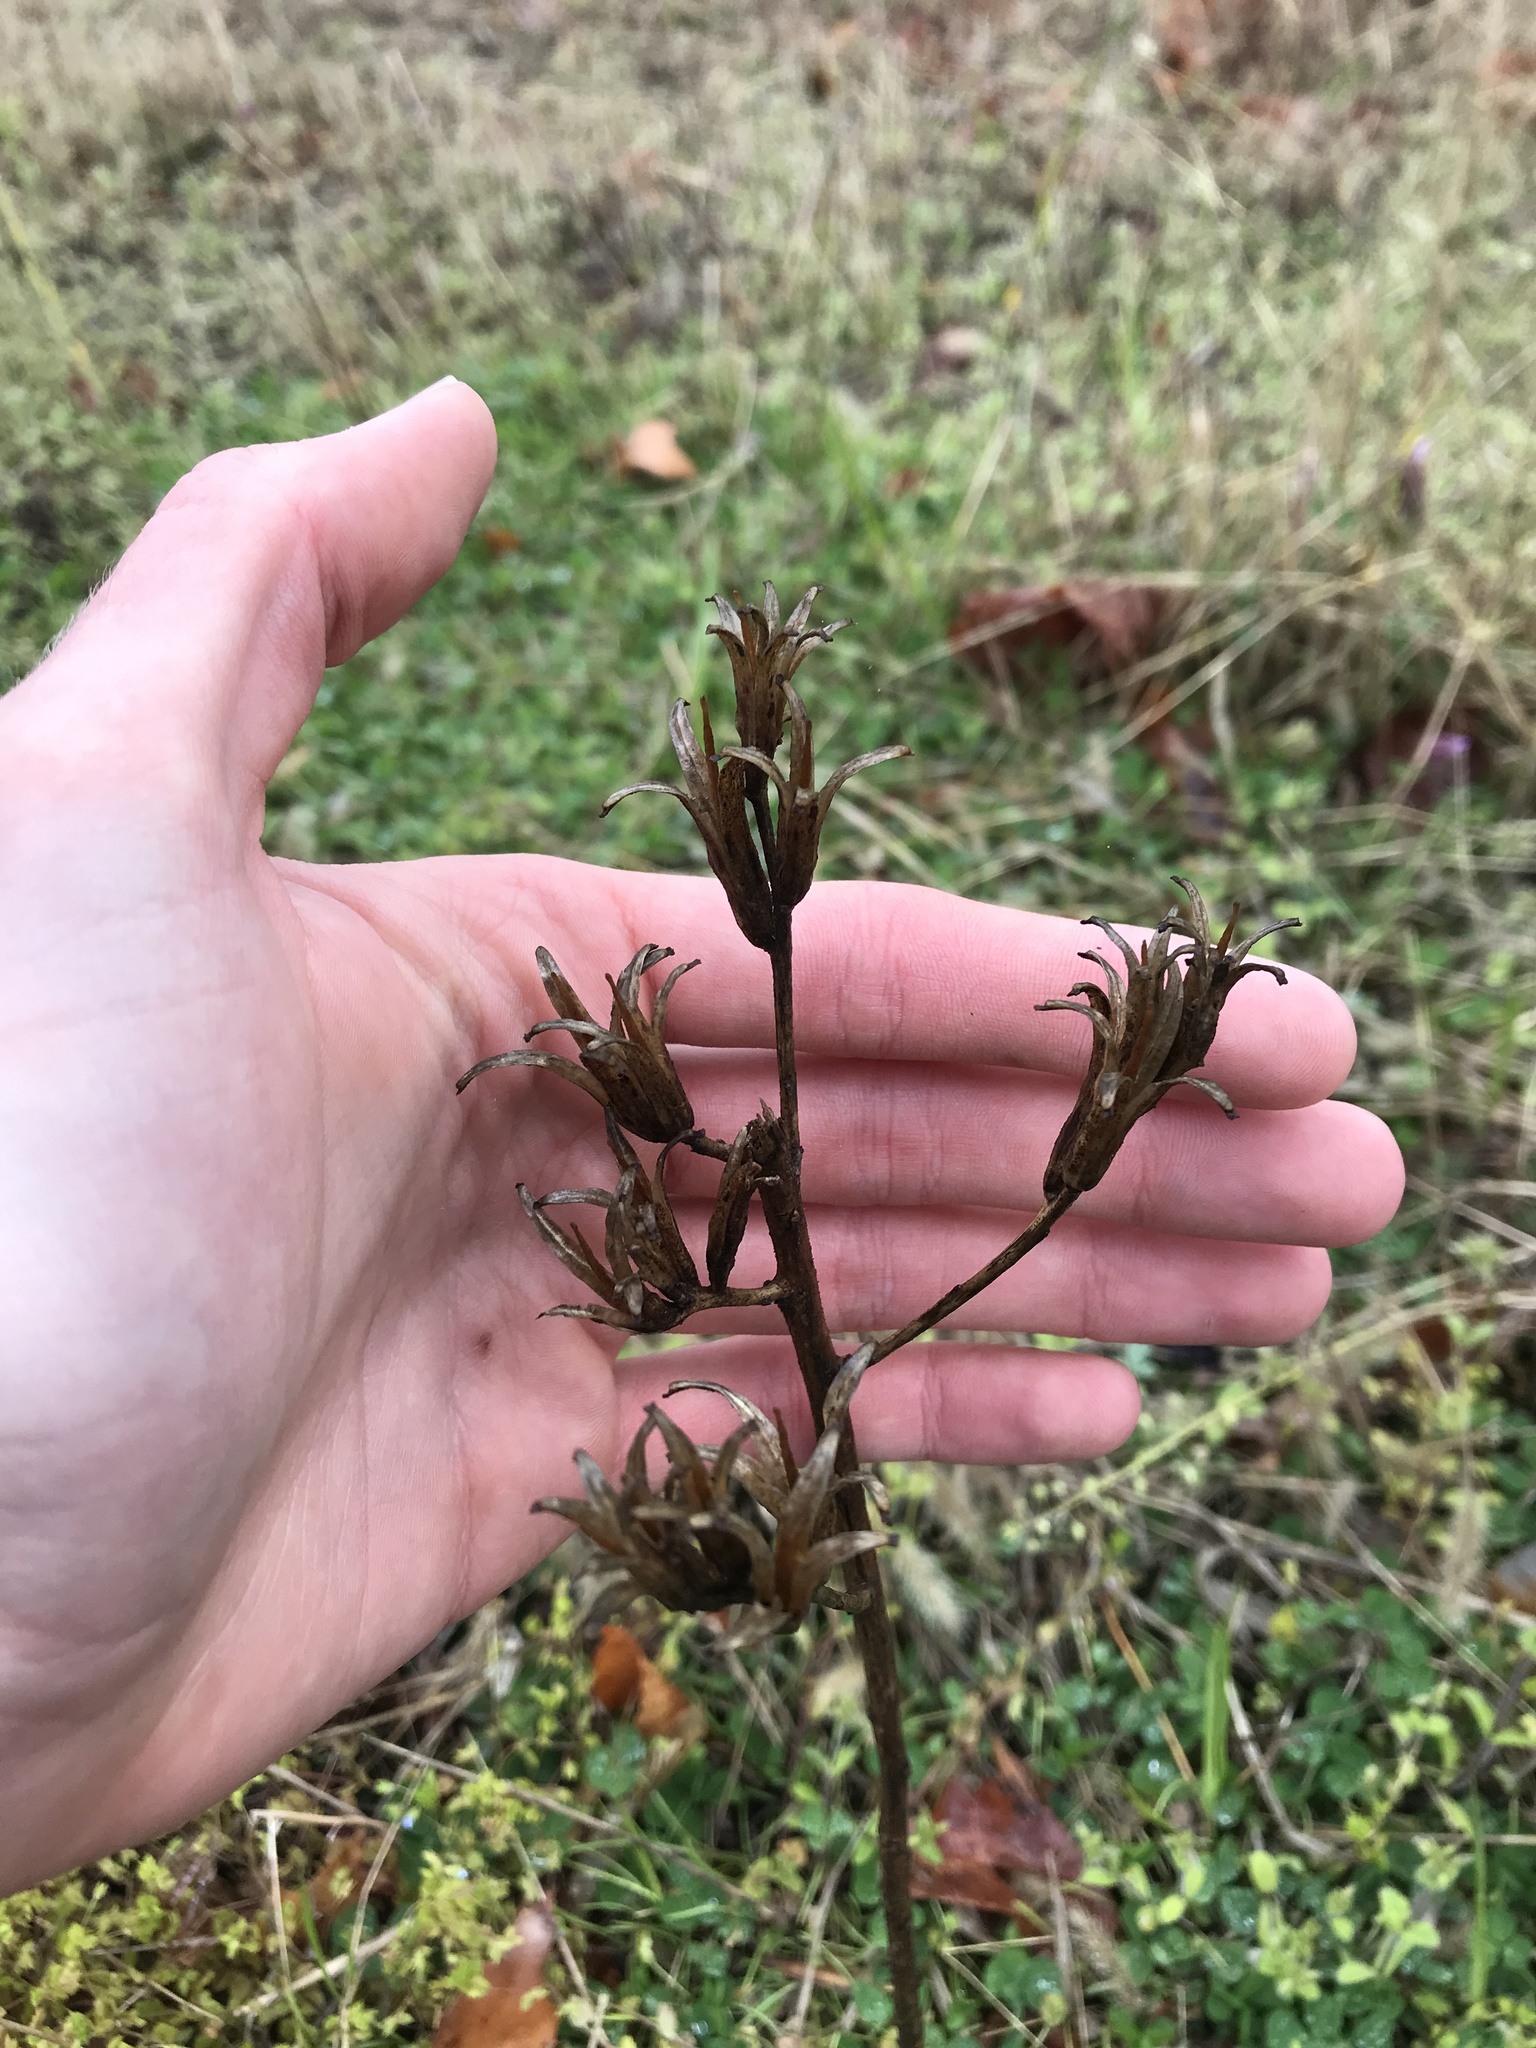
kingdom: Plantae
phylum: Tracheophyta
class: Magnoliopsida
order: Myrtales
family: Onagraceae
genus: Oenothera
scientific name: Oenothera biennis
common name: Common evening-primrose
